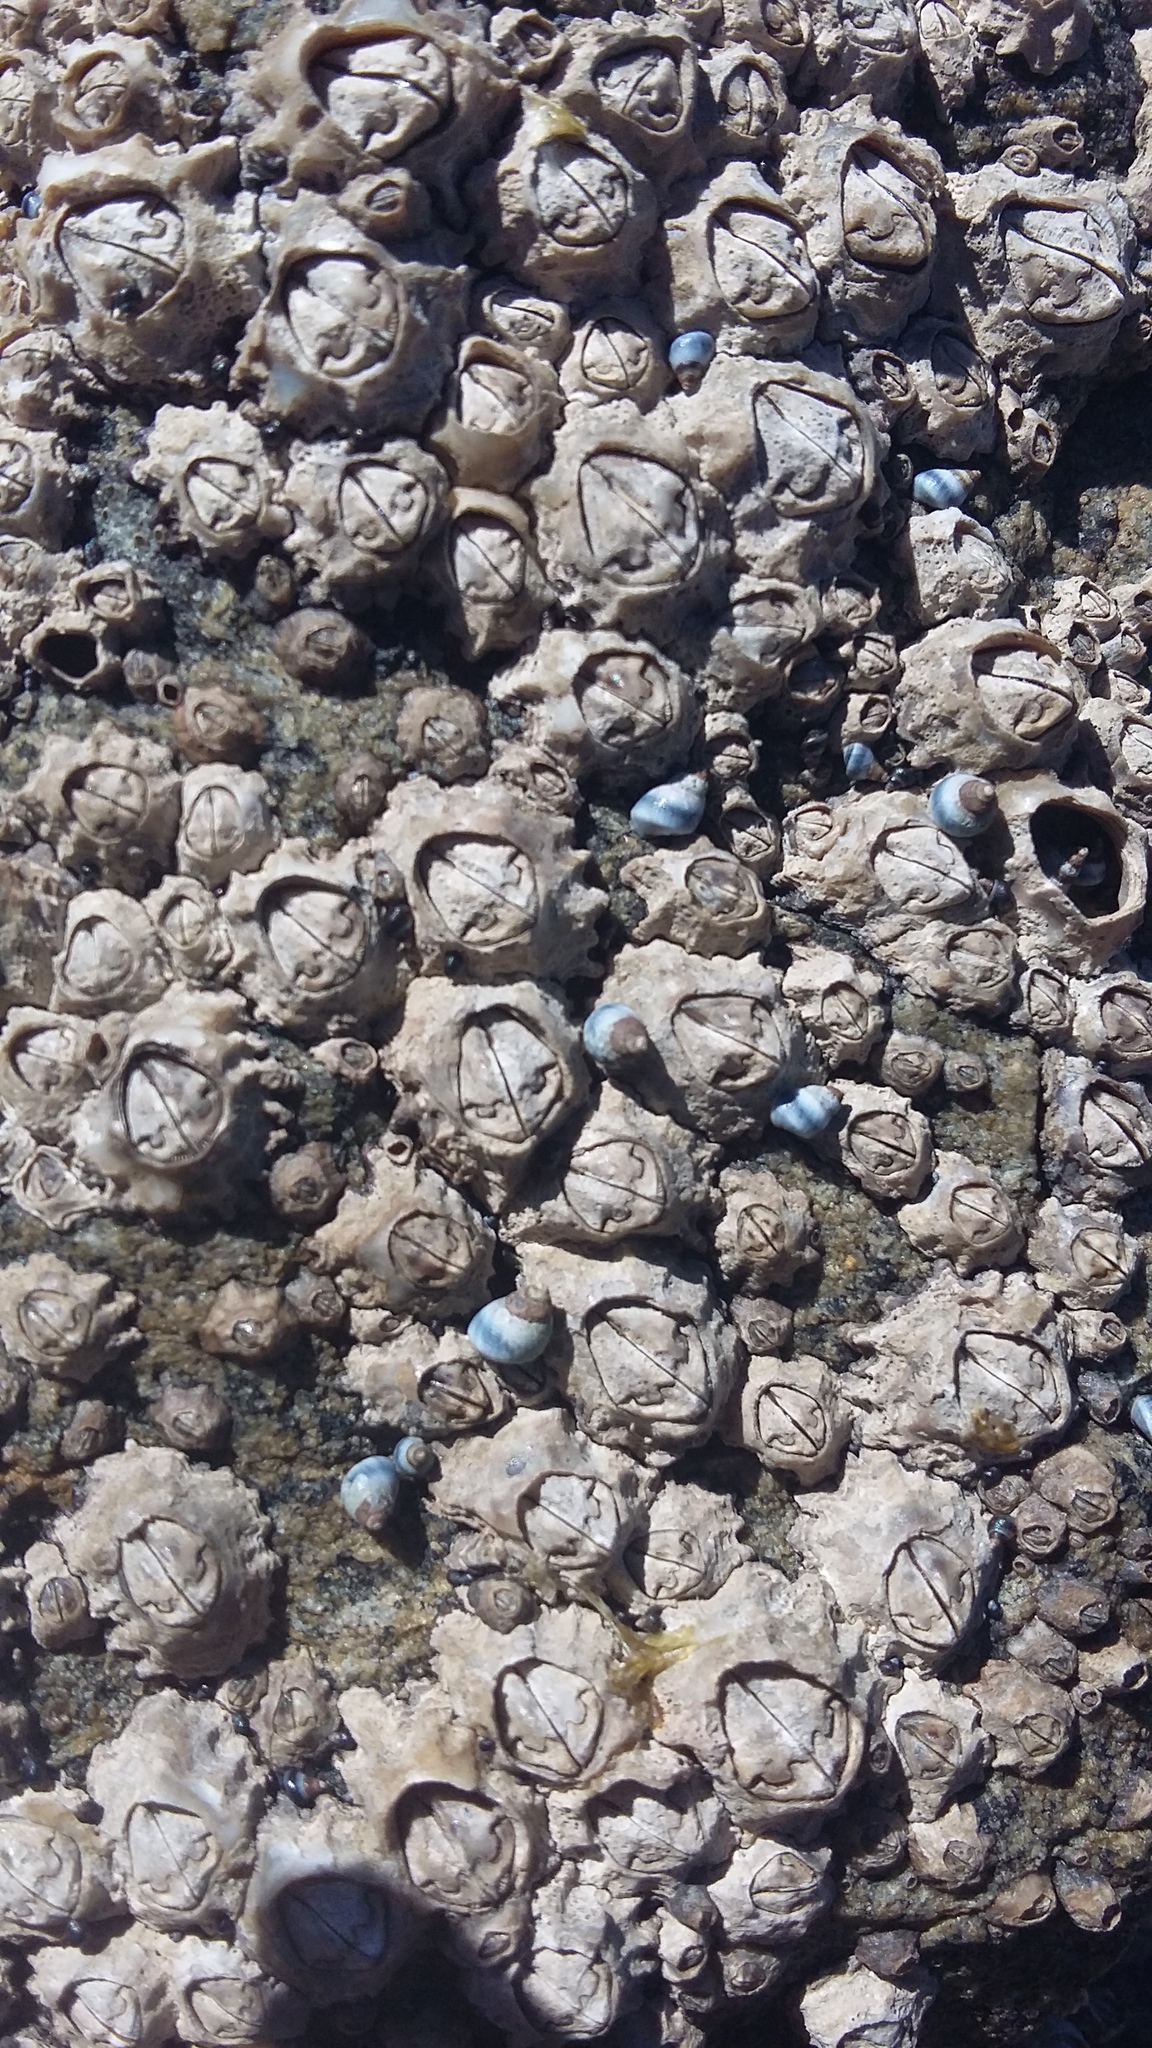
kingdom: Animalia
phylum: Arthropoda
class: Maxillopoda
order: Sessilia
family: Chthamalidae
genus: Chamaesipho
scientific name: Chamaesipho brunnea
